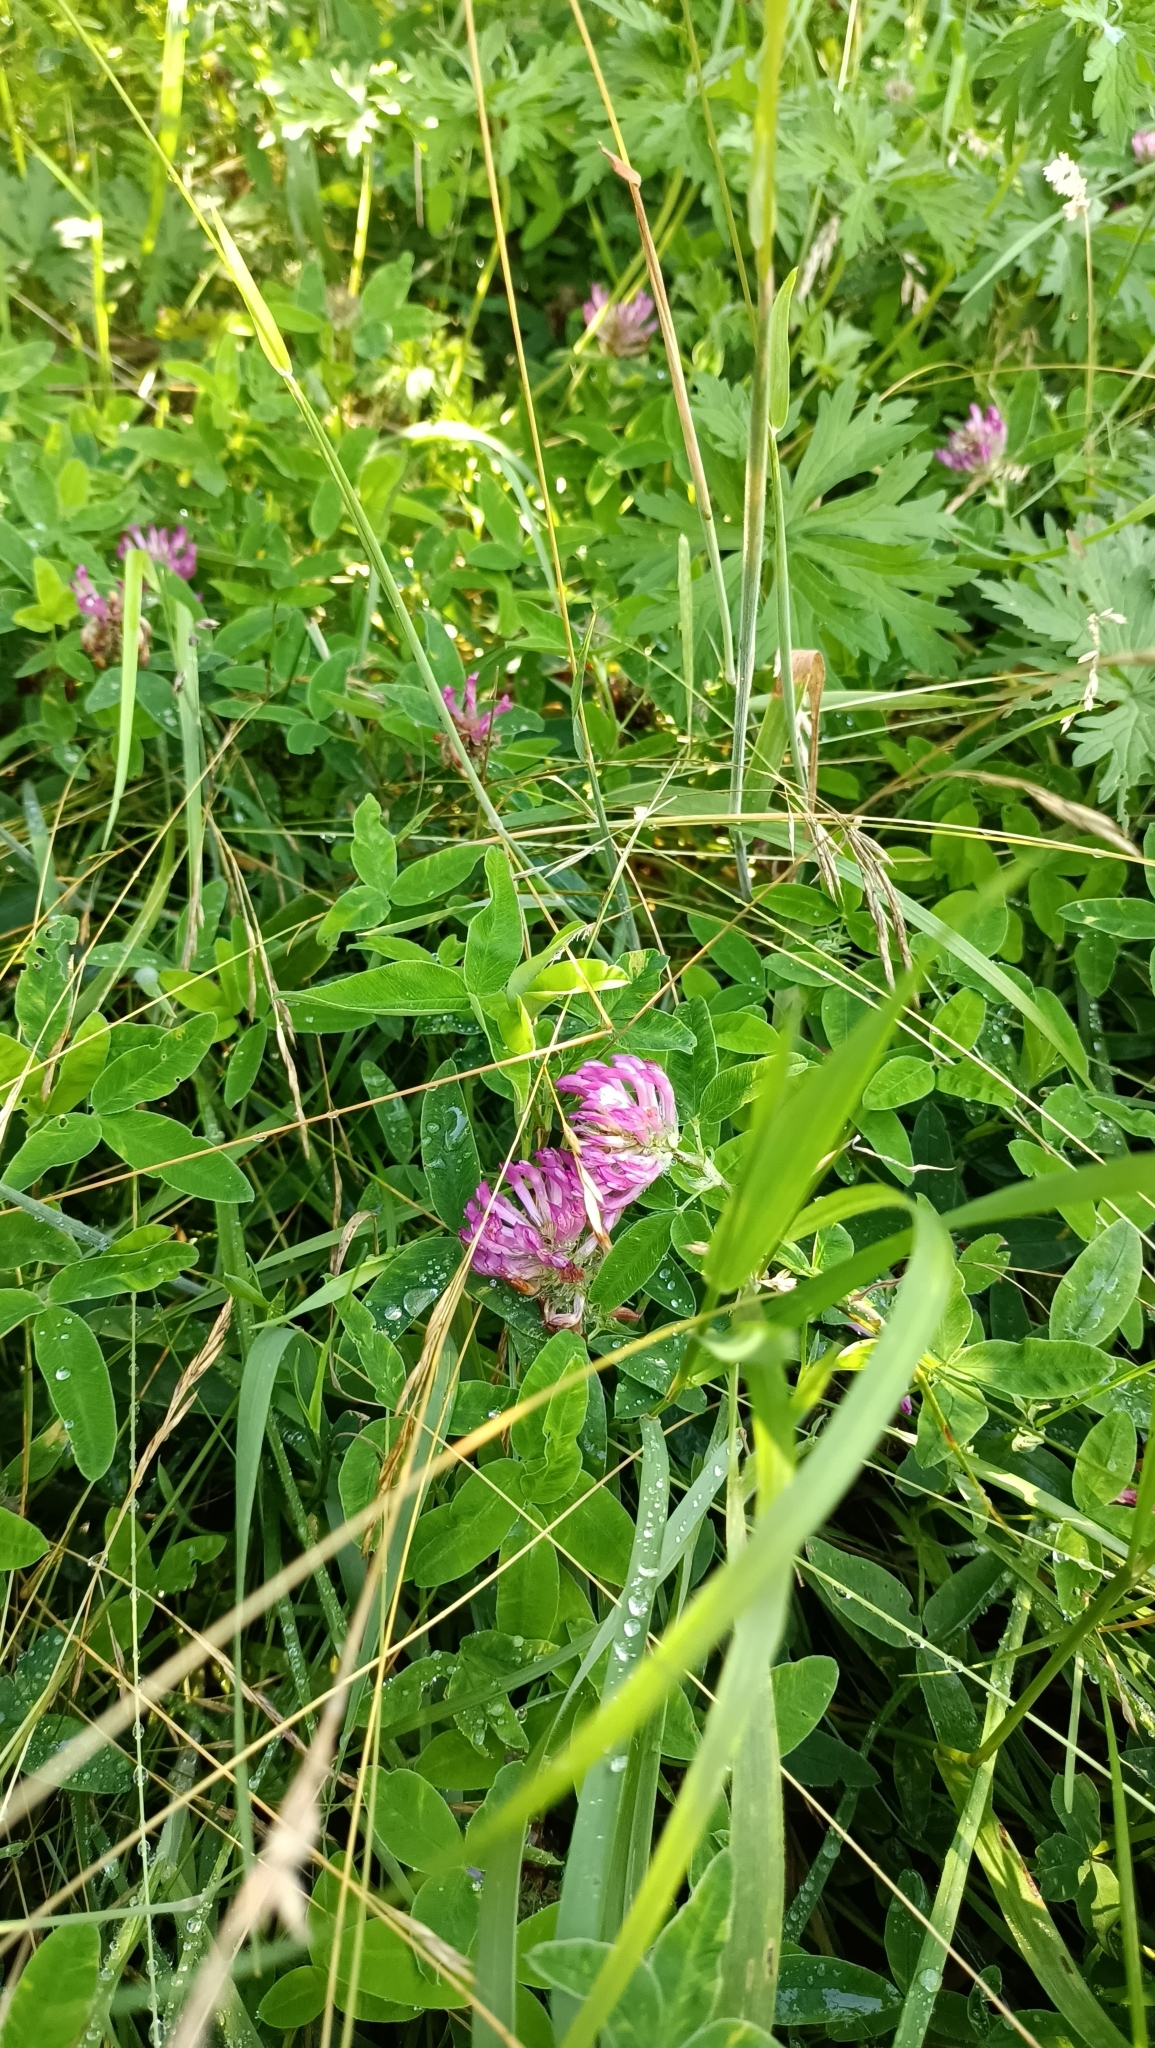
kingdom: Plantae
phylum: Tracheophyta
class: Magnoliopsida
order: Fabales
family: Fabaceae
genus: Trifolium
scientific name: Trifolium medium
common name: Zigzag clover
